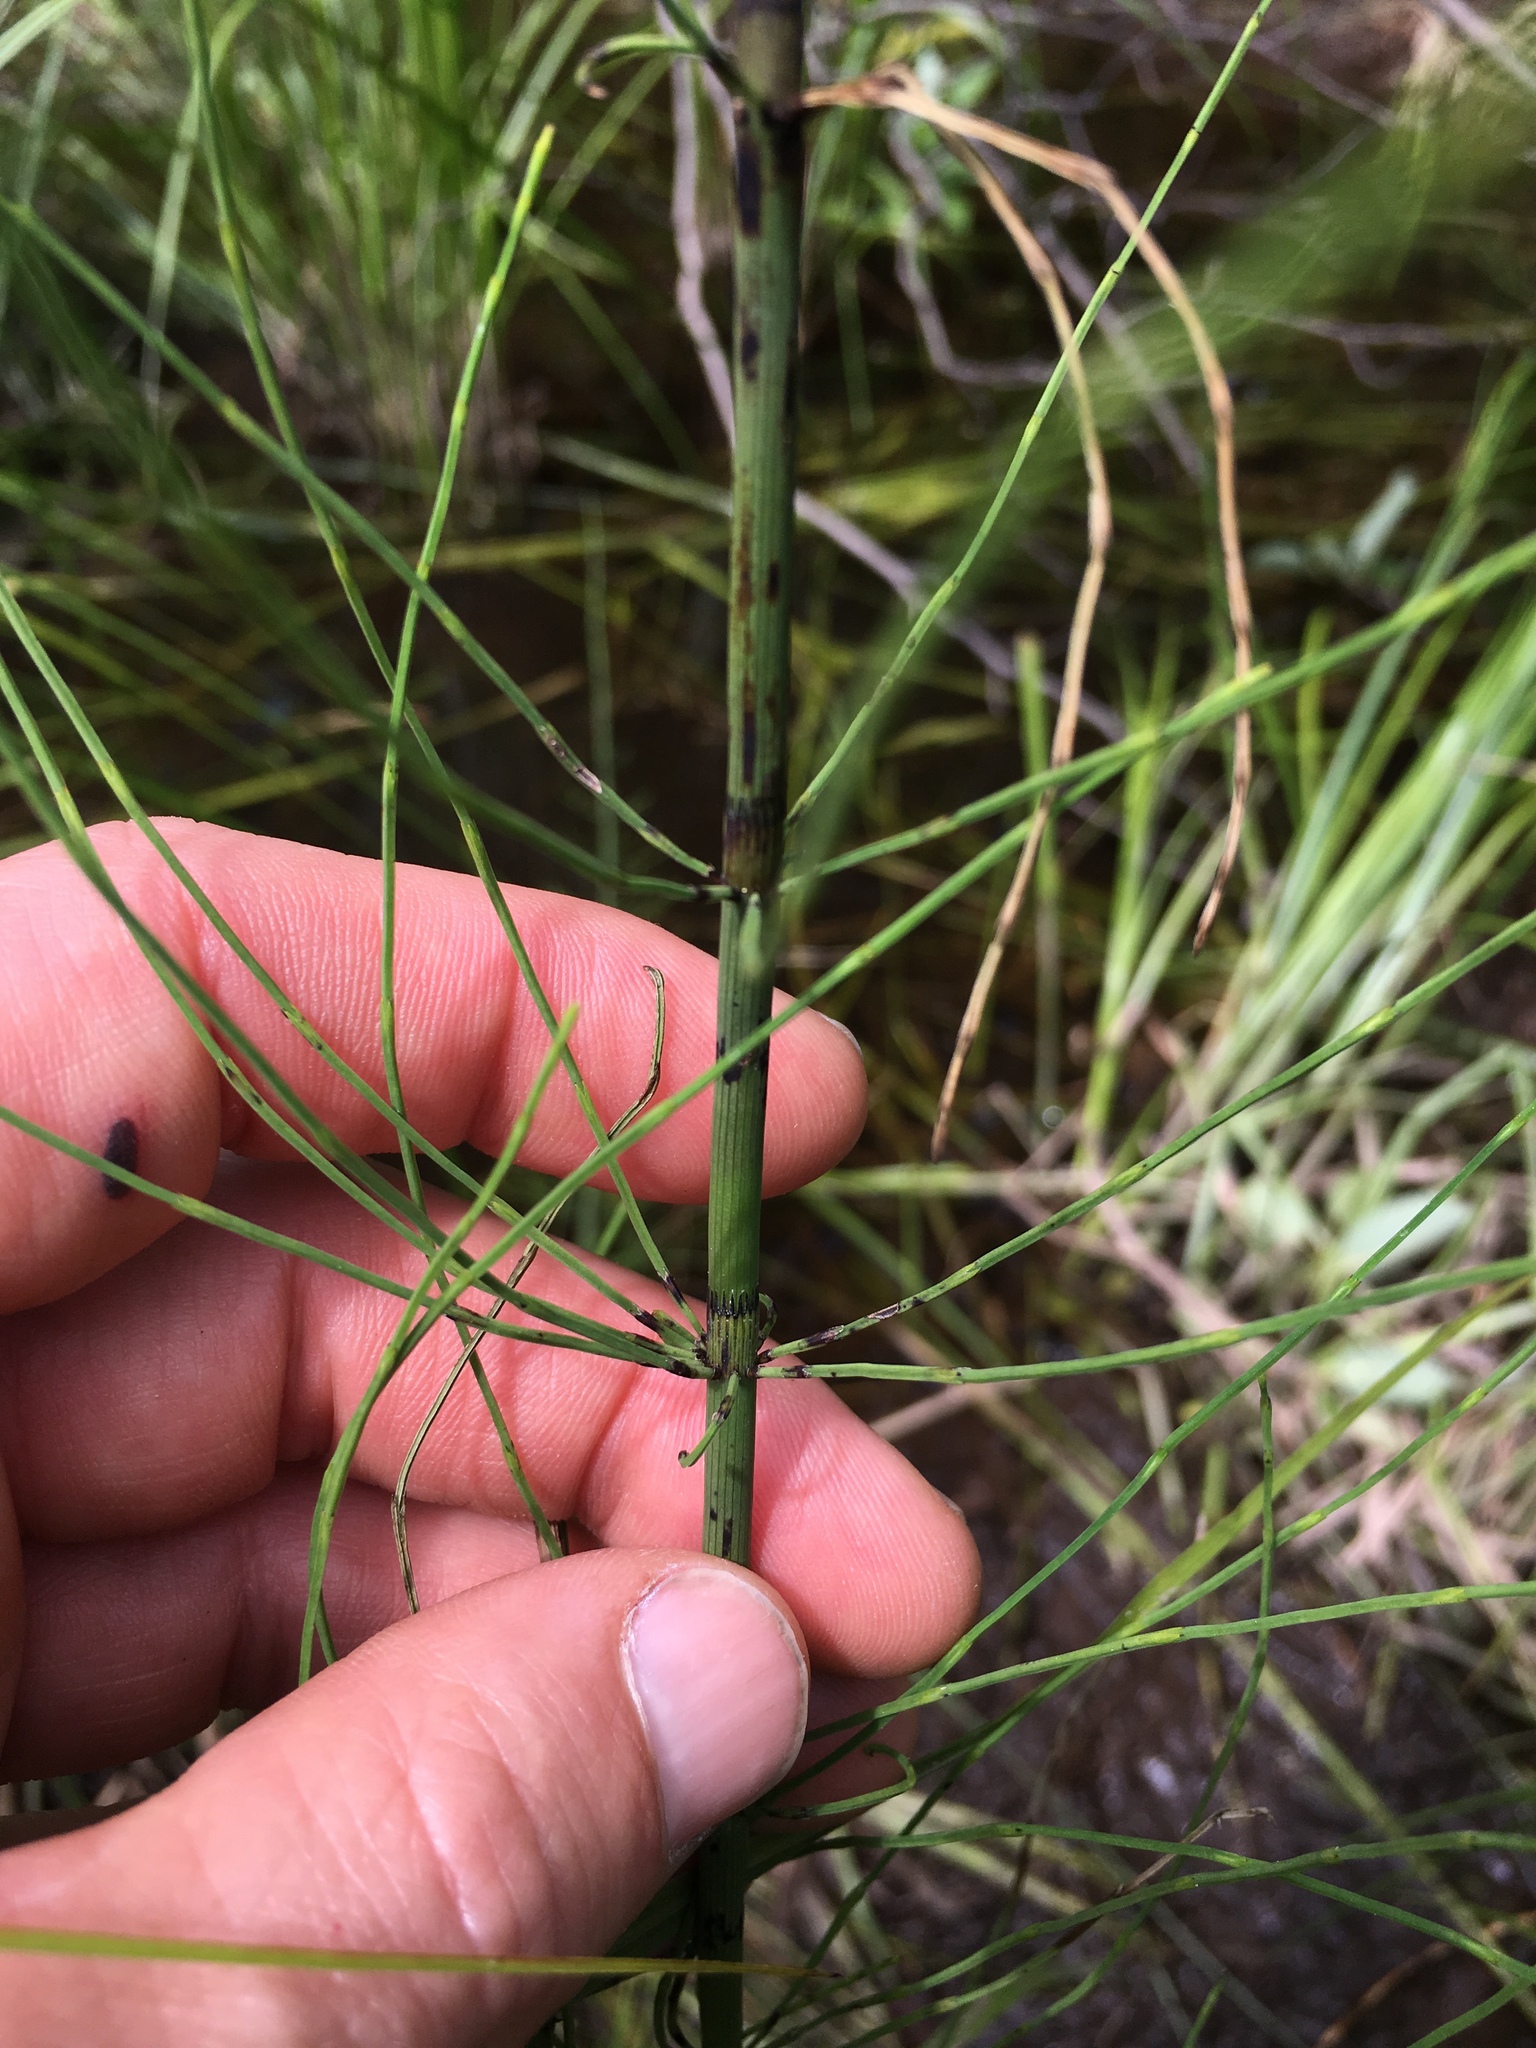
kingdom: Plantae
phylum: Tracheophyta
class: Polypodiopsida
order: Equisetales
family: Equisetaceae
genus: Equisetum
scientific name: Equisetum fluviatile
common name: Water horsetail
